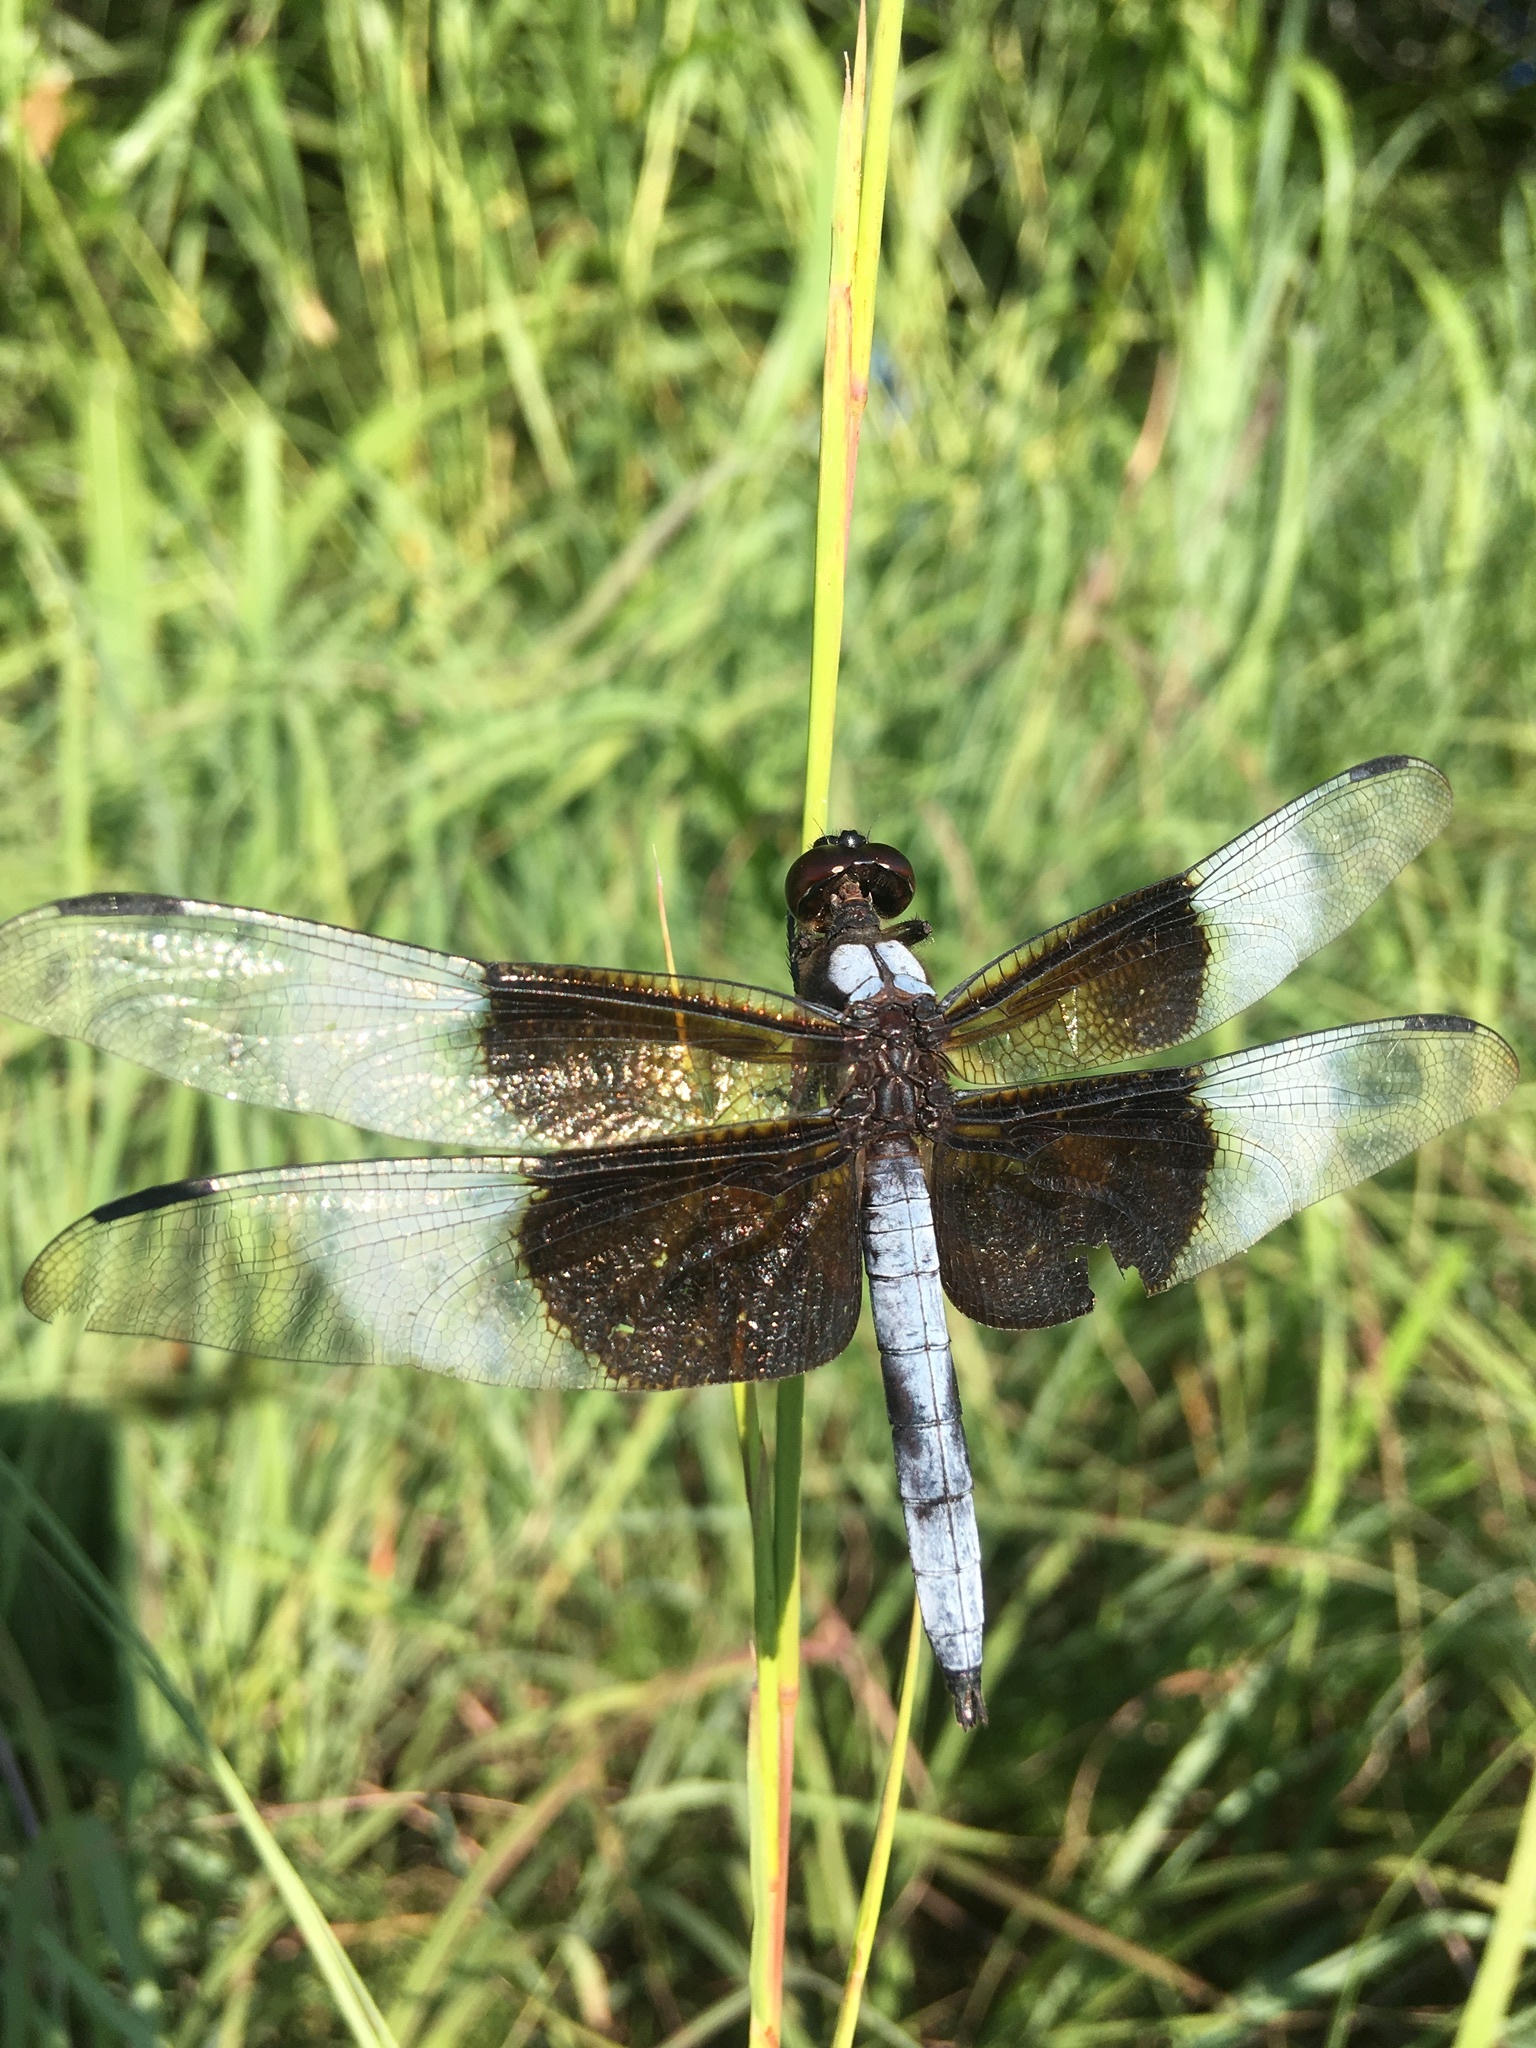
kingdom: Animalia
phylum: Arthropoda
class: Insecta
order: Odonata
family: Libellulidae
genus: Libellula
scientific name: Libellula luctuosa
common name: Widow skimmer
